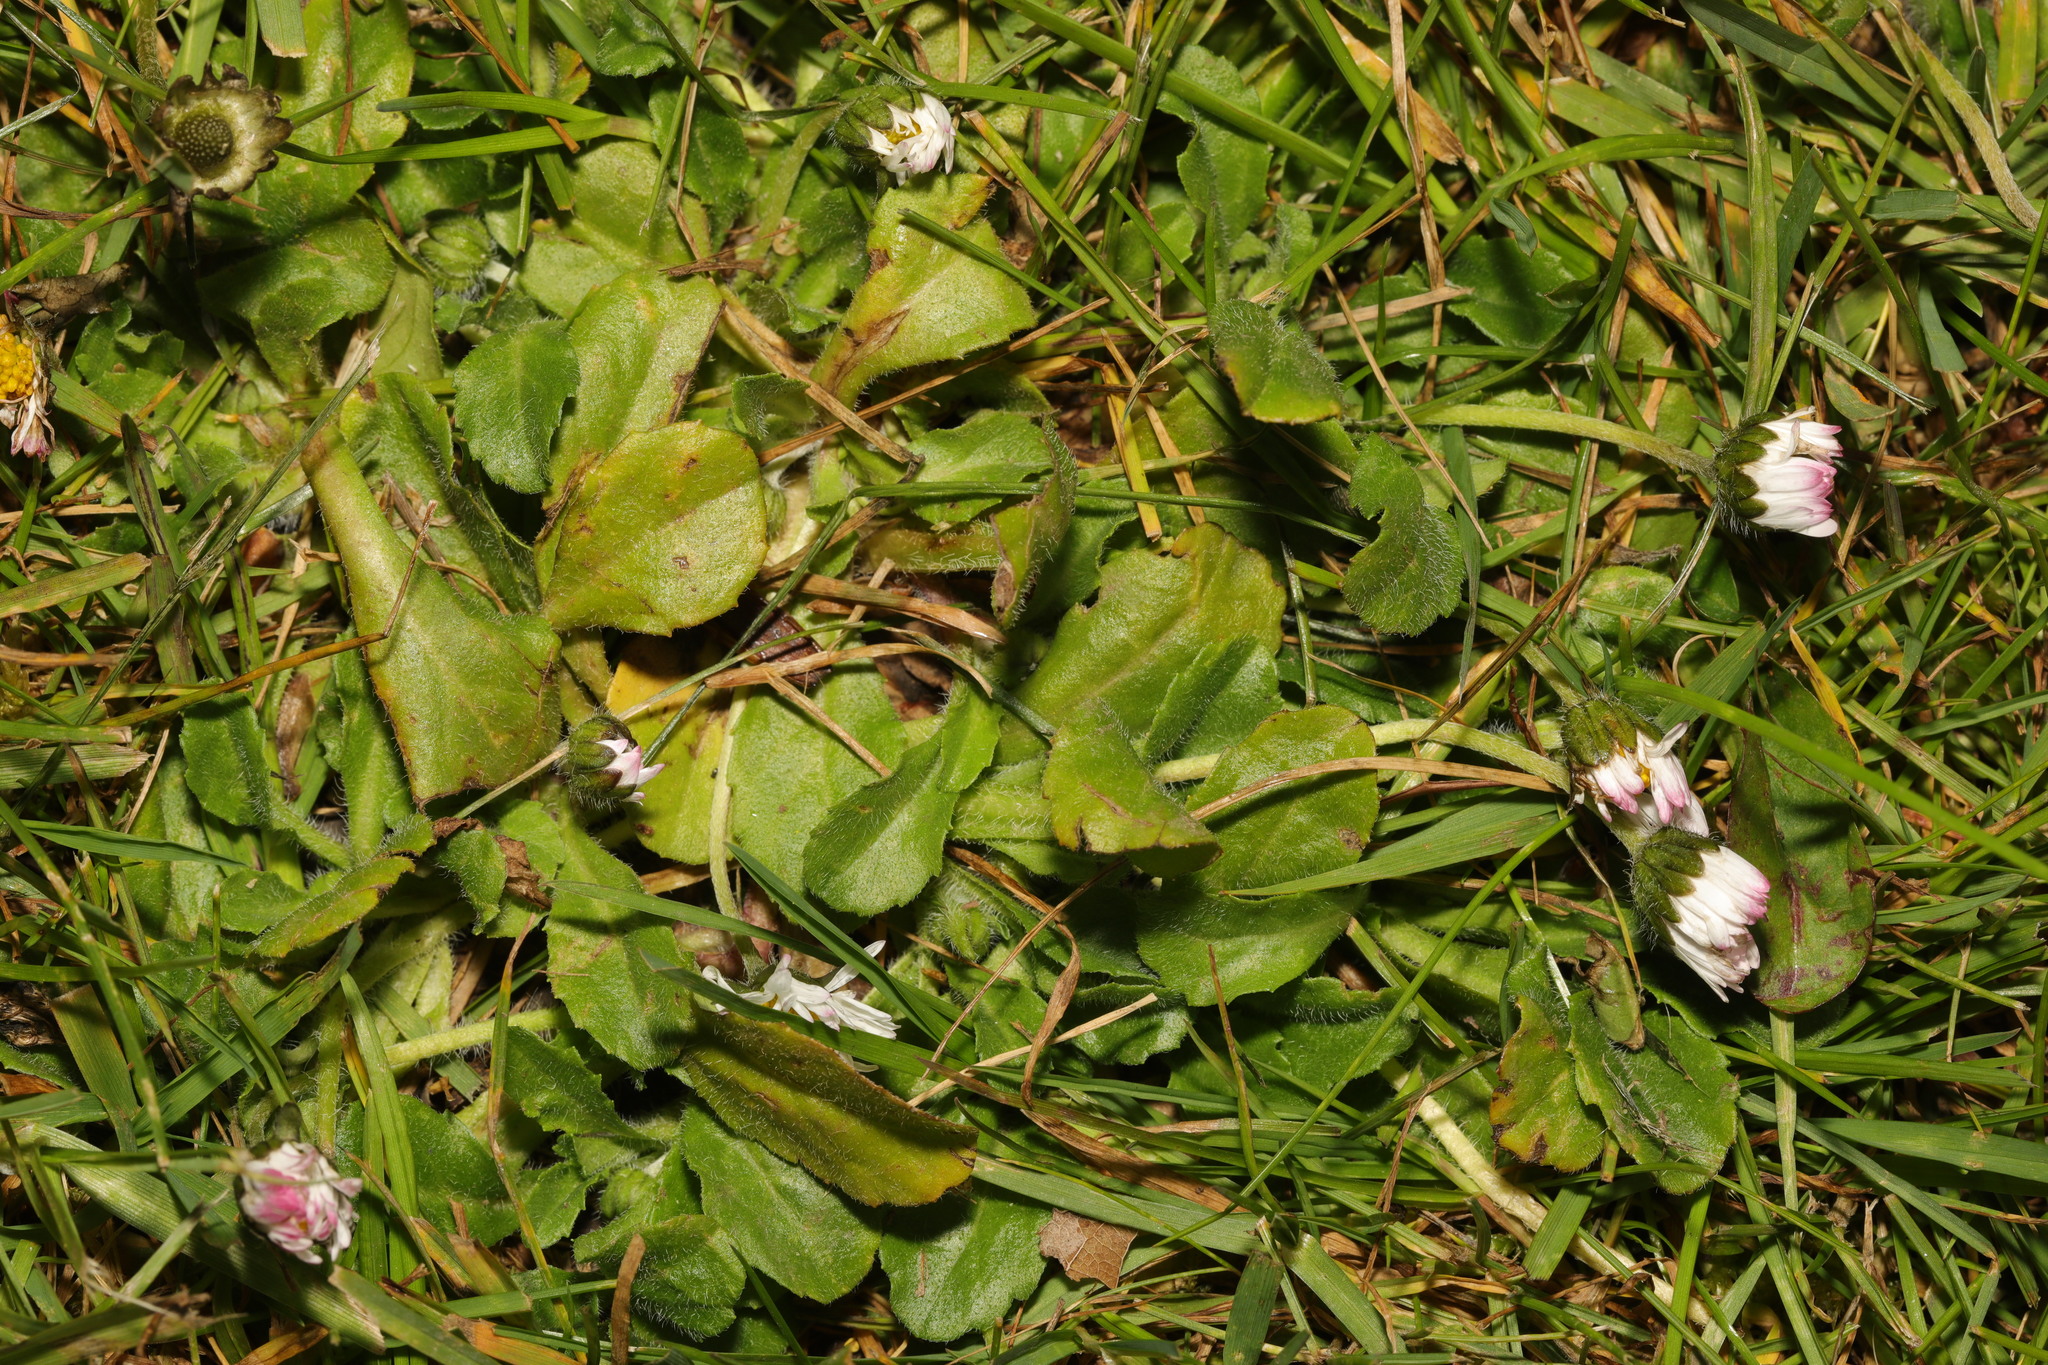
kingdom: Plantae
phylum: Tracheophyta
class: Magnoliopsida
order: Asterales
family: Asteraceae
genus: Bellis
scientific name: Bellis perennis
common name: Lawndaisy
